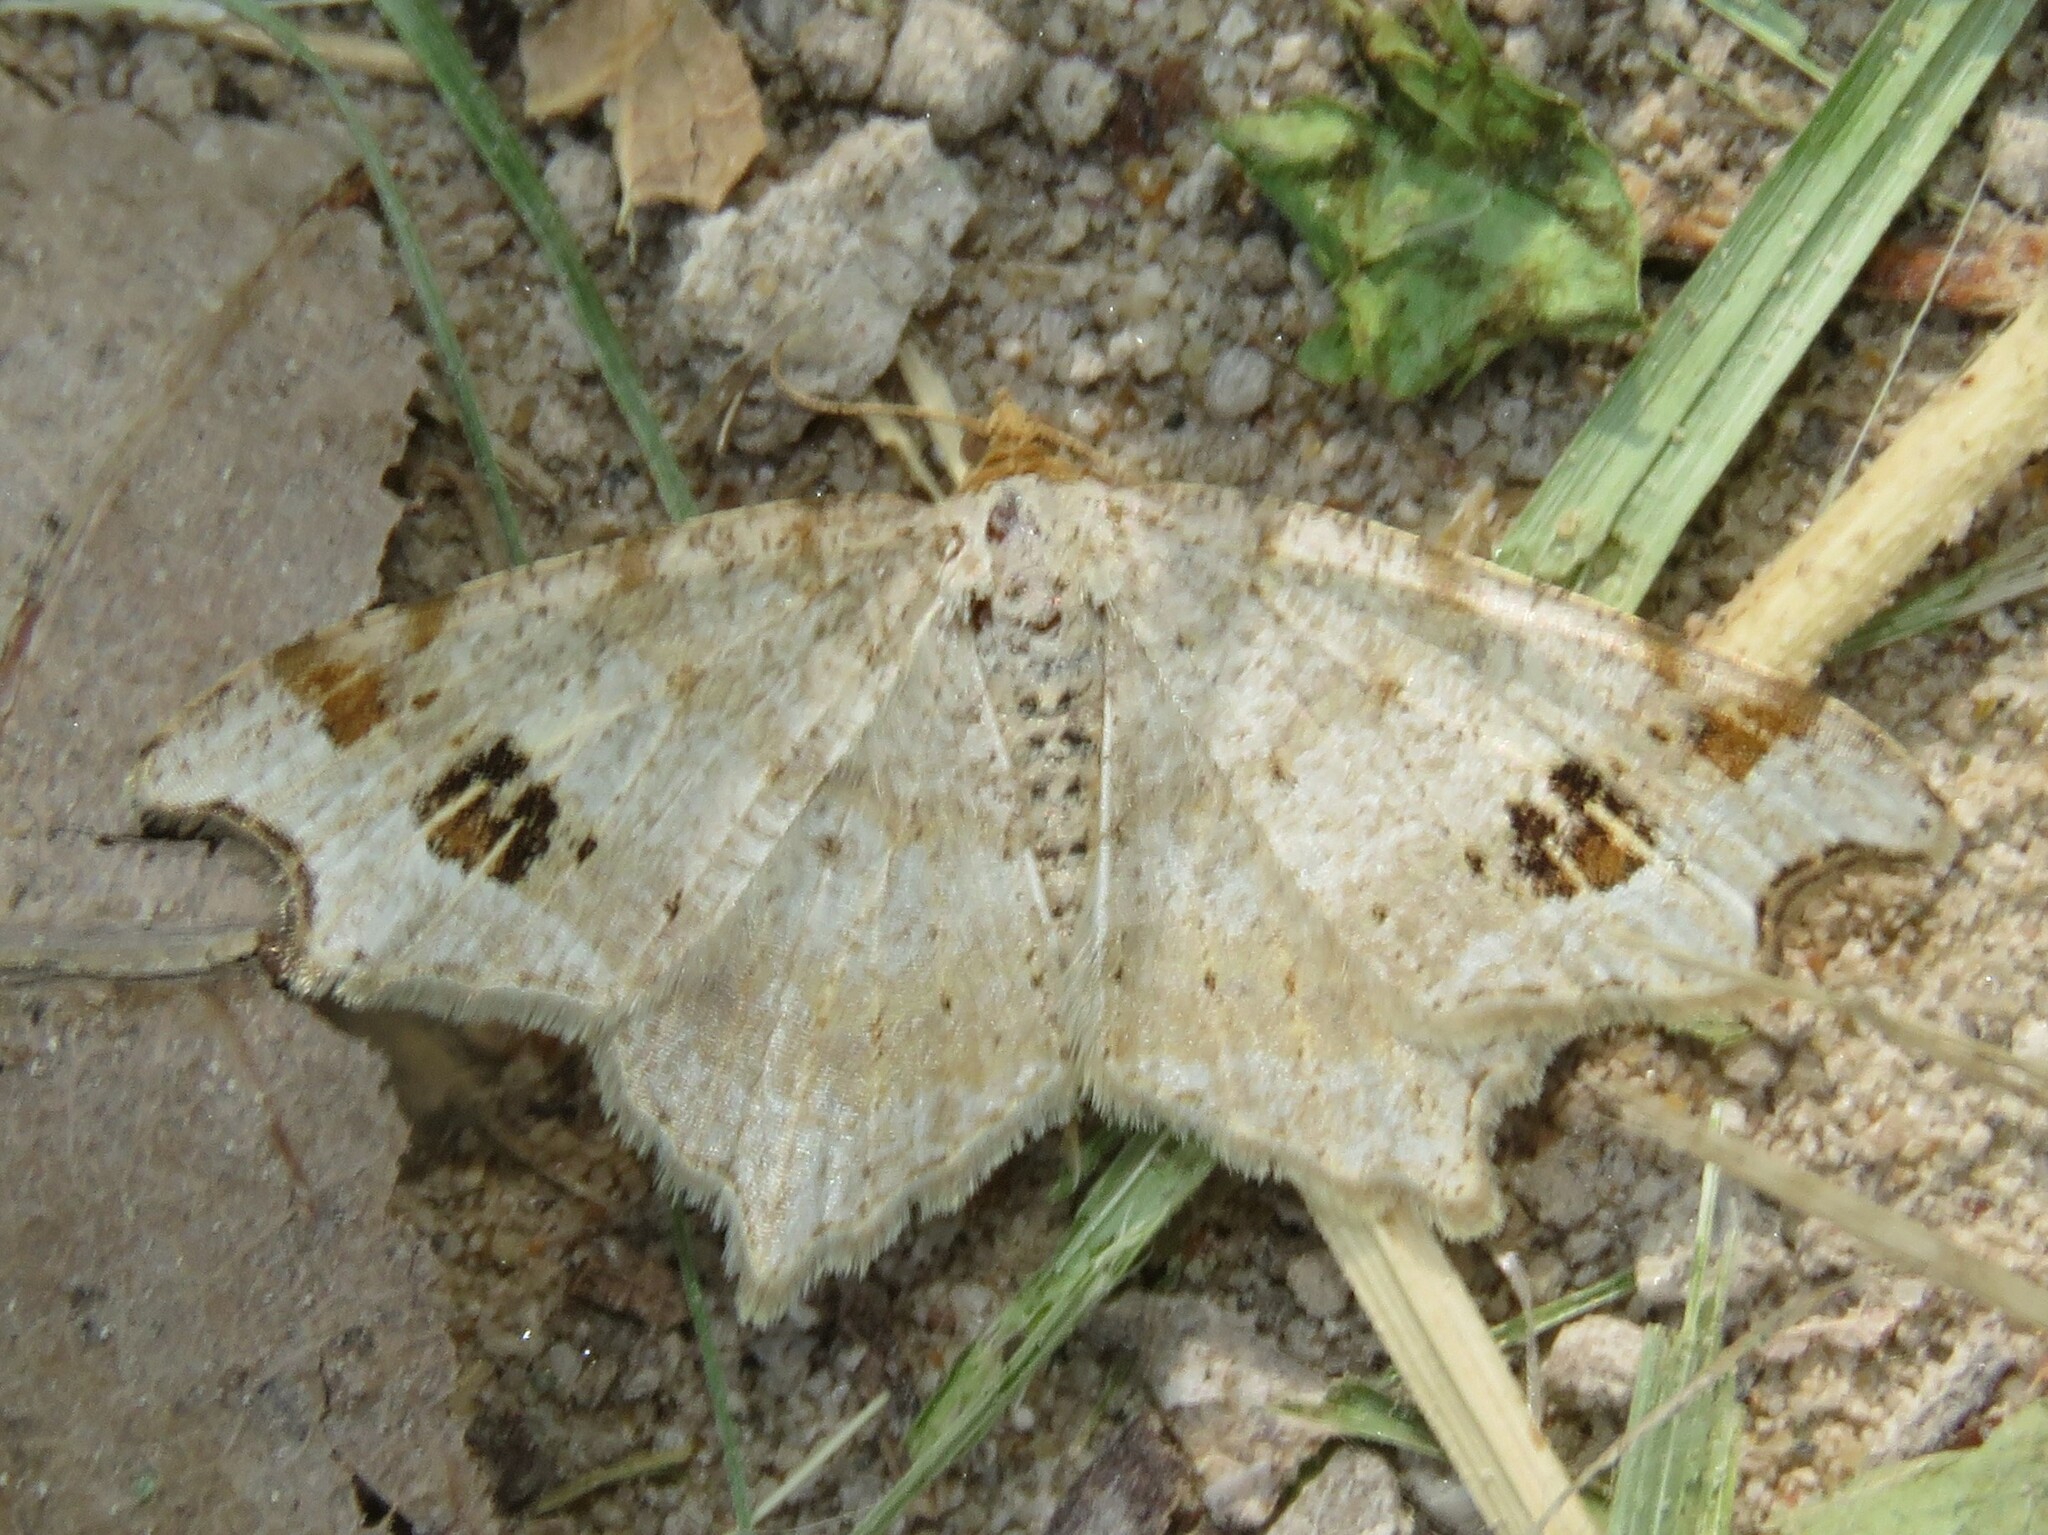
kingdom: Animalia
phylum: Arthropoda
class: Insecta
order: Lepidoptera
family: Geometridae
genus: Macaria
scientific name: Macaria aemulataria
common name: Common angle
